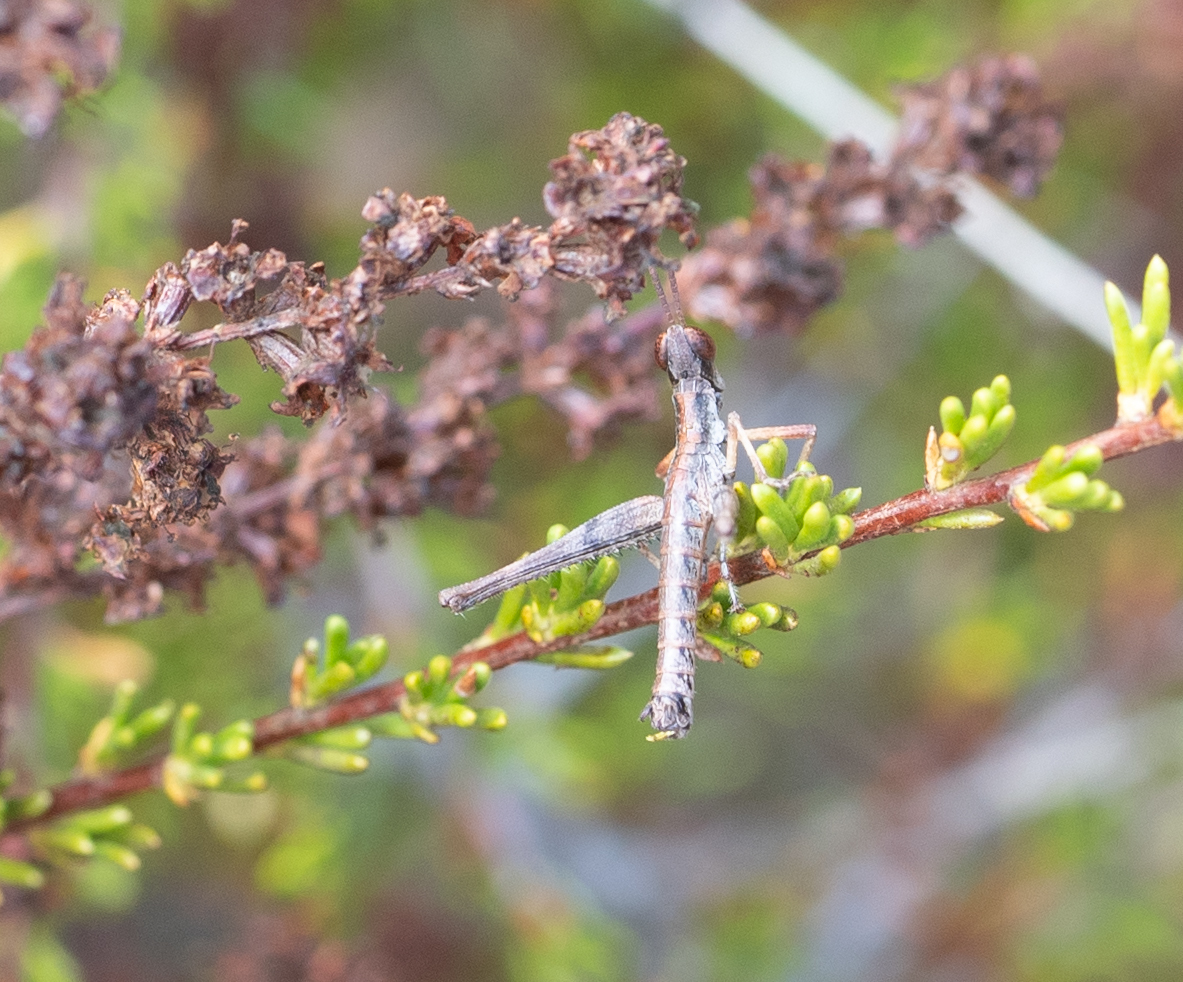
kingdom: Animalia
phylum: Arthropoda
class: Insecta
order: Orthoptera
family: Eumastacidae
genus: Morsea
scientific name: Morsea californica
